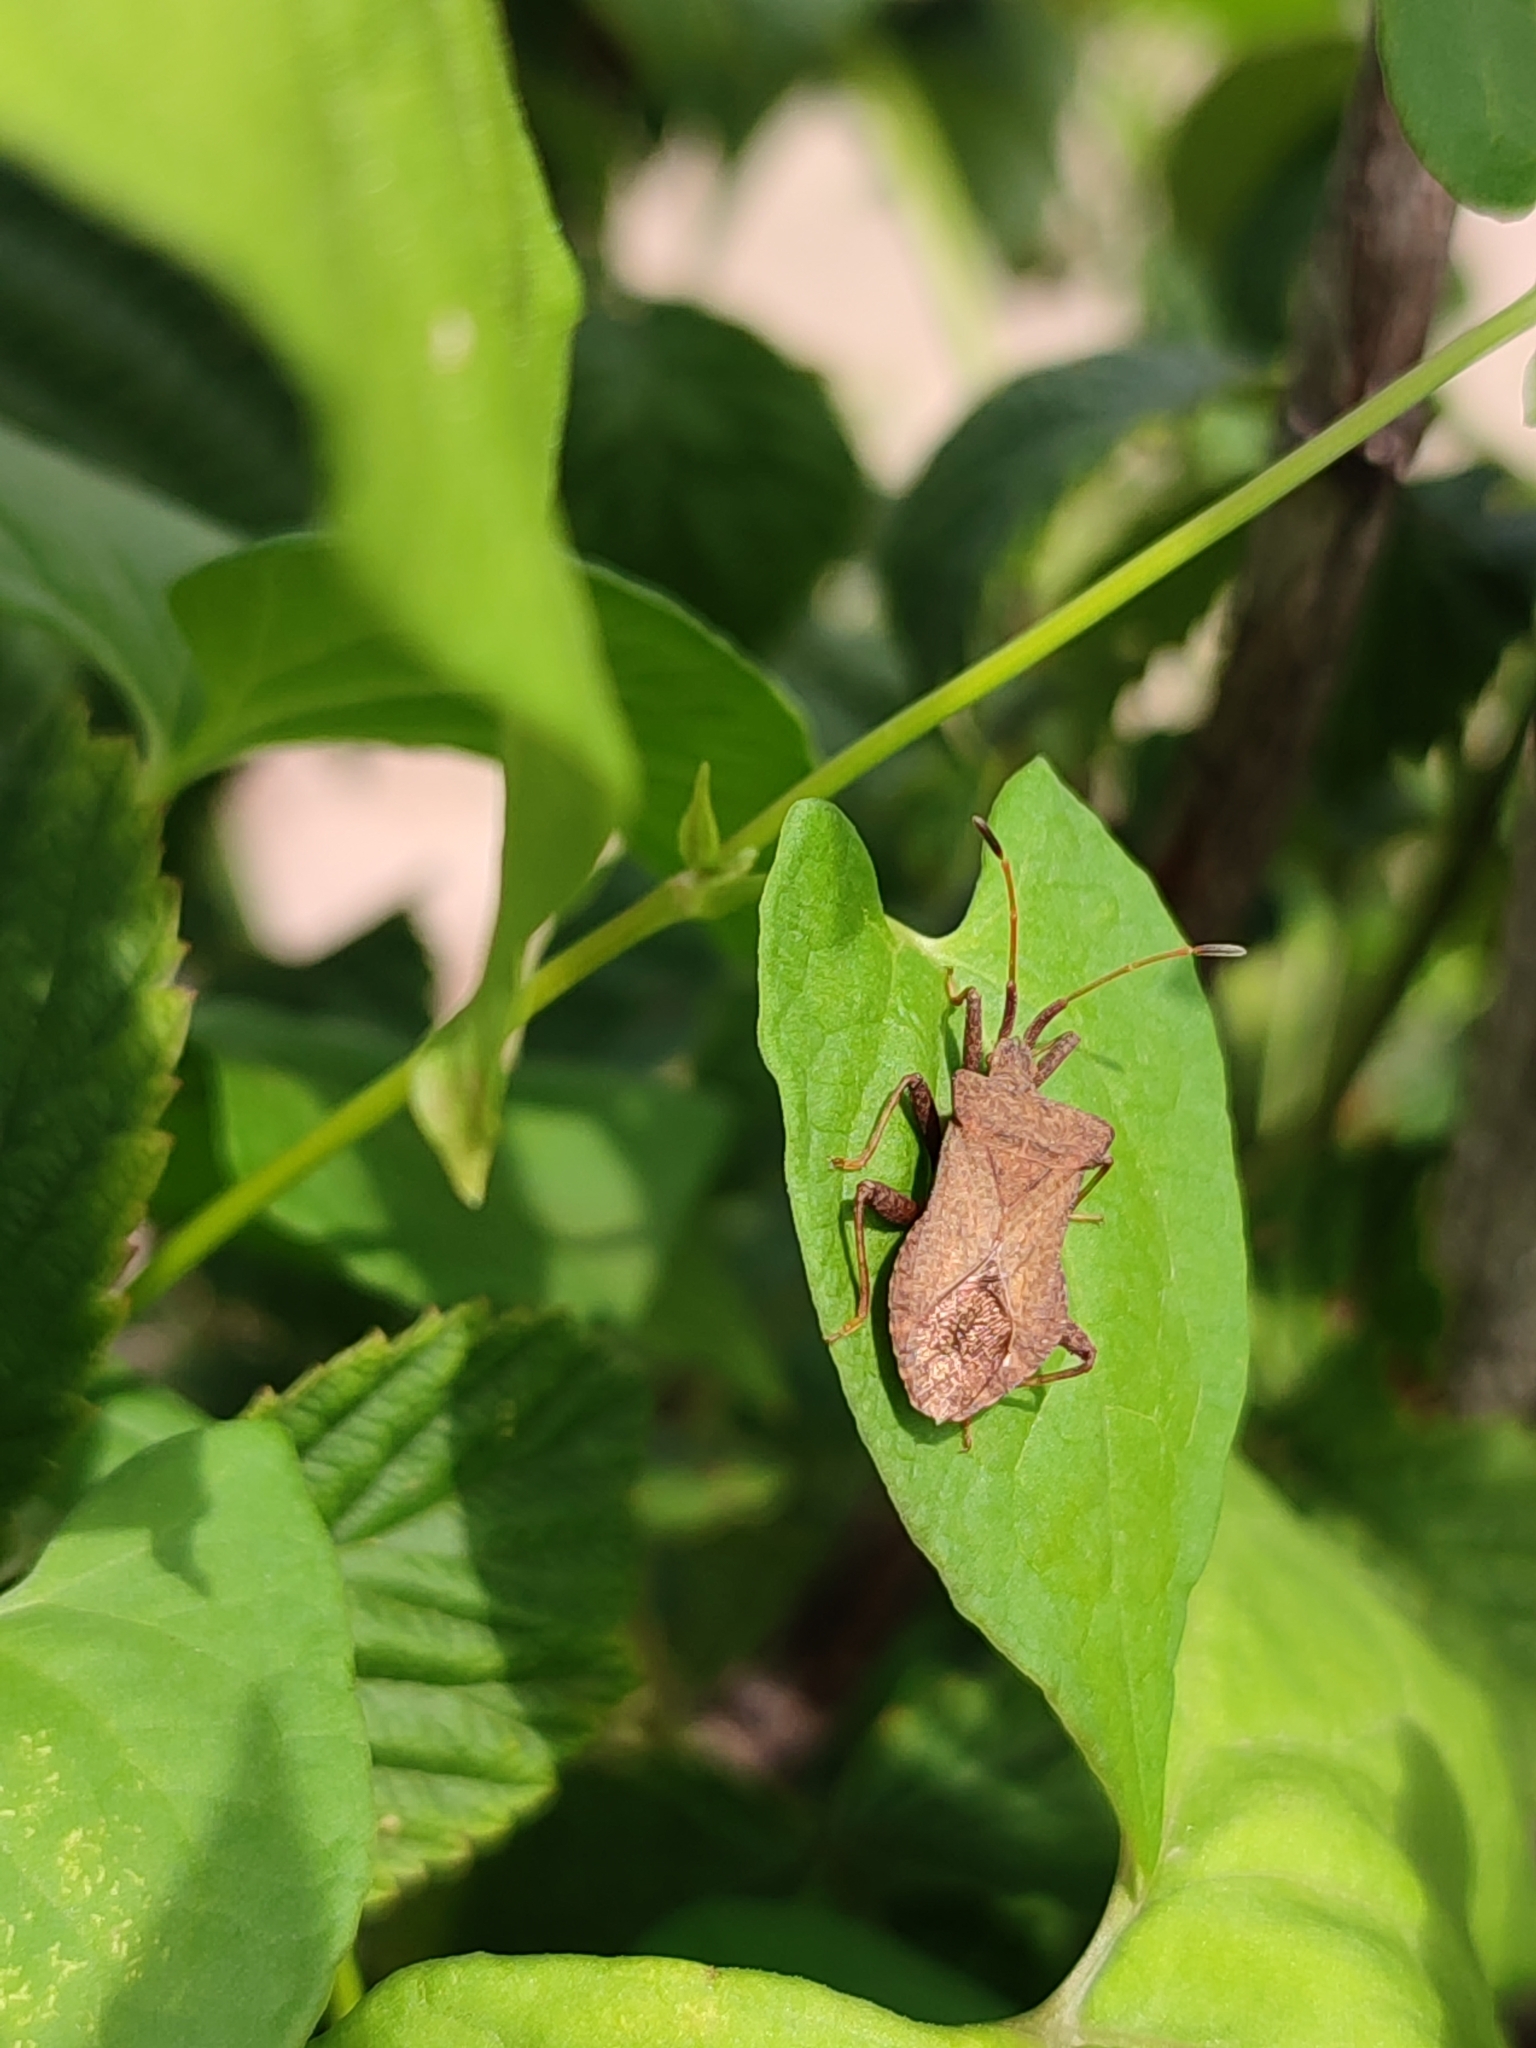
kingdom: Animalia
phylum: Arthropoda
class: Insecta
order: Hemiptera
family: Coreidae
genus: Coreus
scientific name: Coreus marginatus
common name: Dock bug
